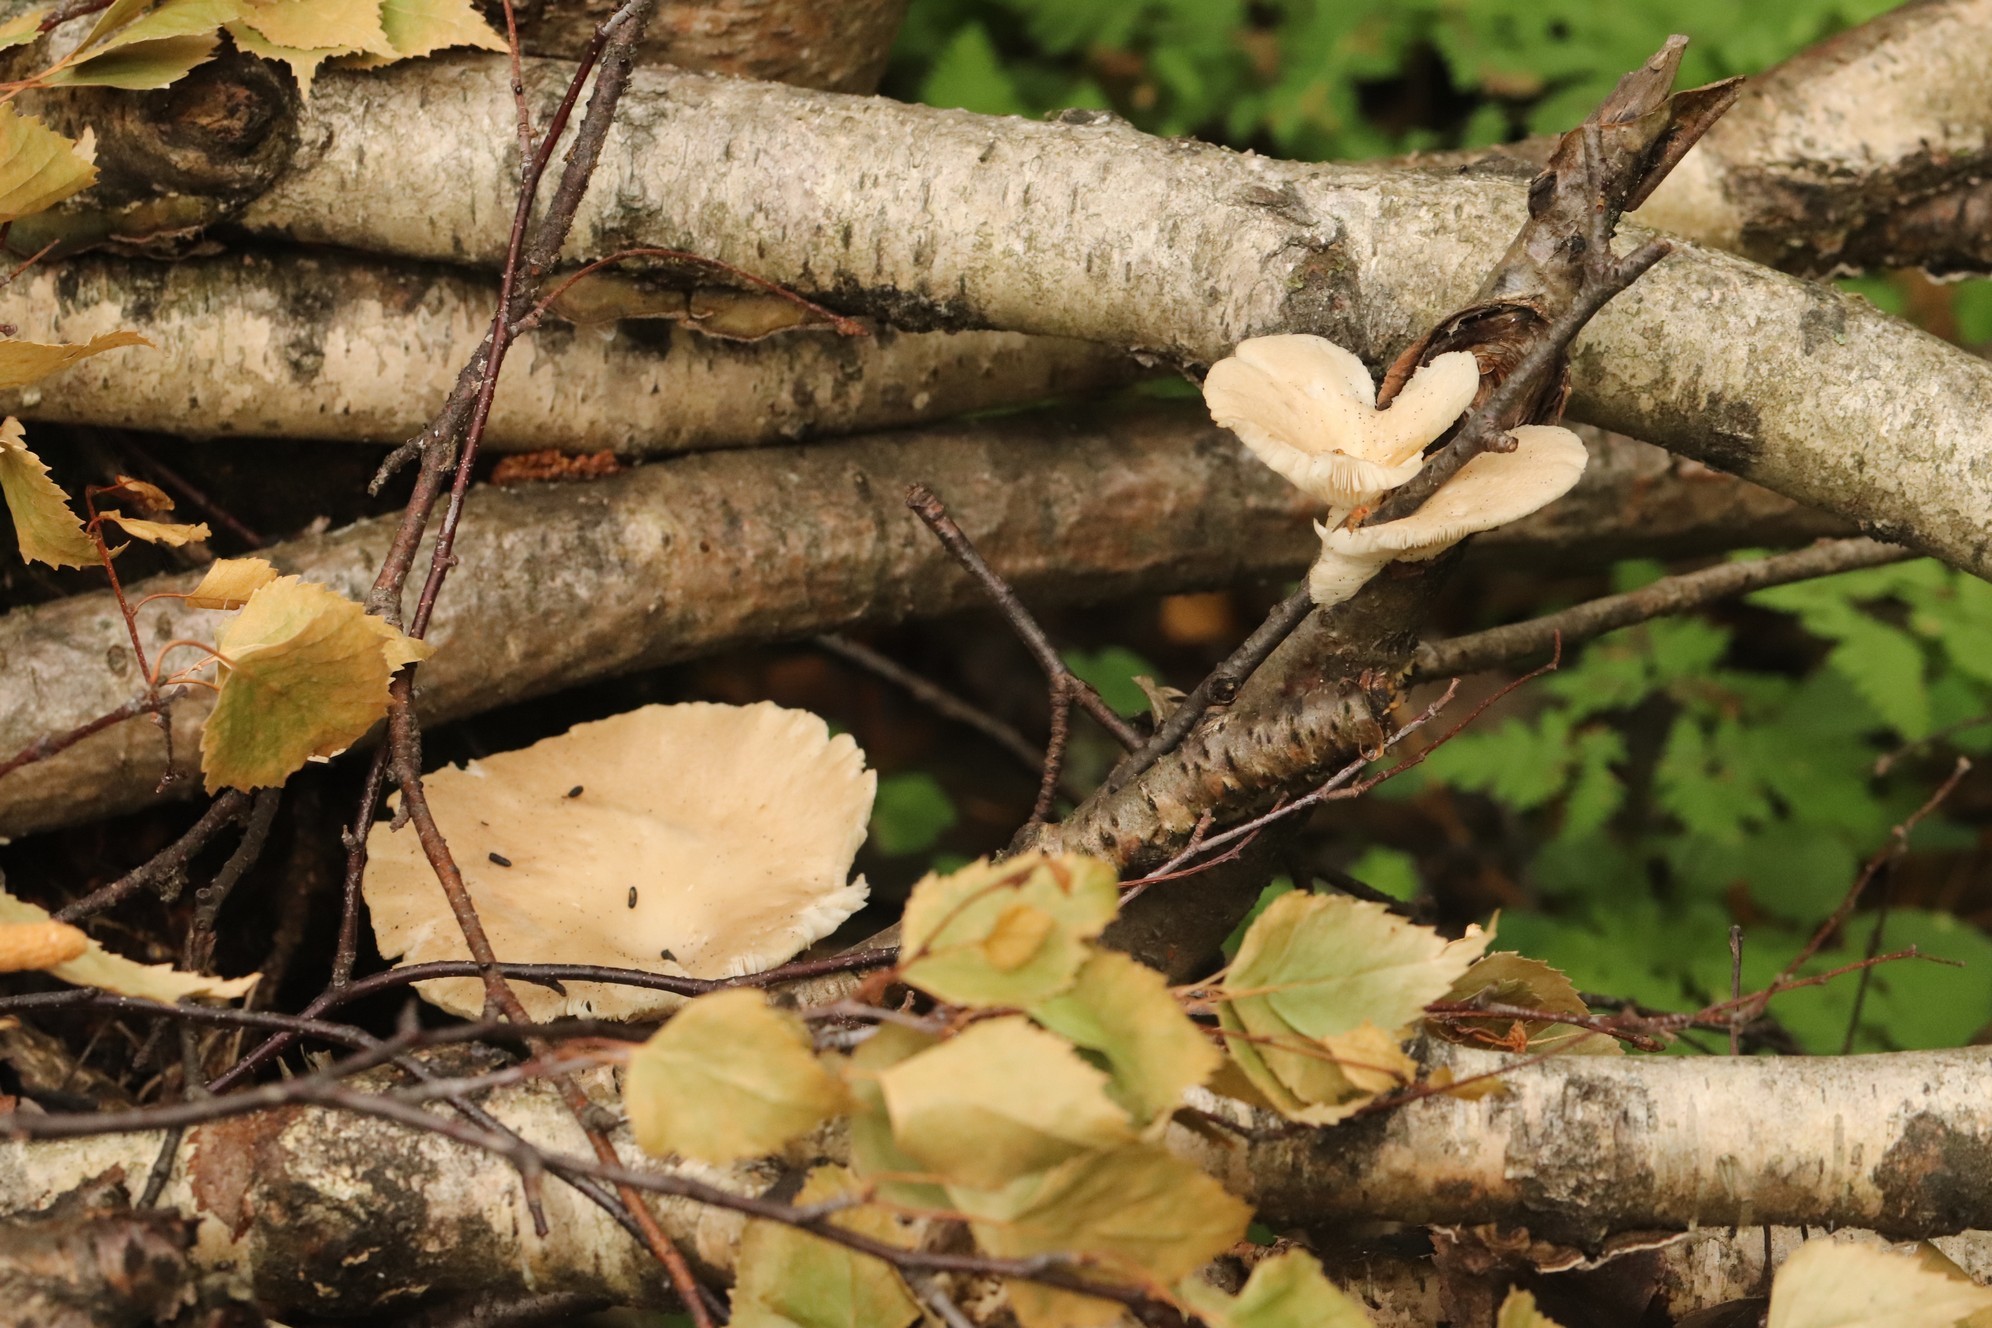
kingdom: Fungi
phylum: Basidiomycota
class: Agaricomycetes
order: Agaricales
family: Pleurotaceae
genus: Pleurotus
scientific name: Pleurotus pulmonarius
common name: Pale oyster
